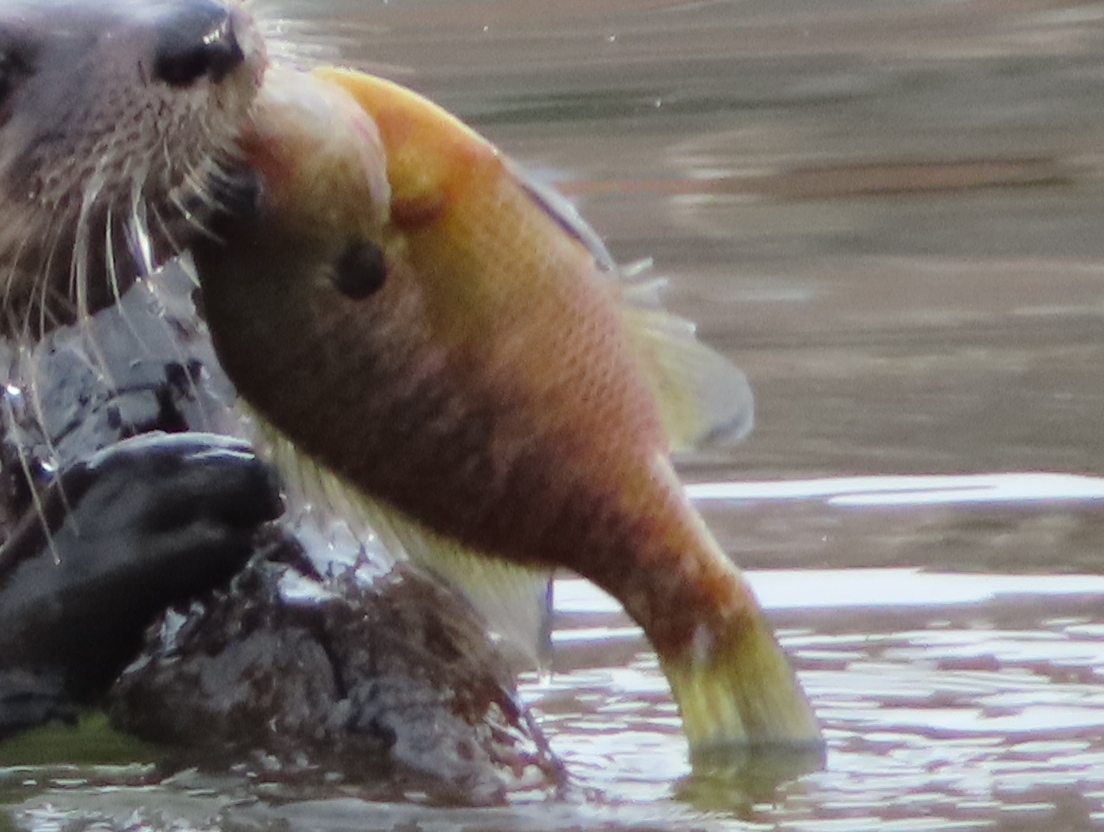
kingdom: Animalia
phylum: Chordata
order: Perciformes
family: Centrarchidae
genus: Lepomis
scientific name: Lepomis macrochirus
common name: Bluegill
